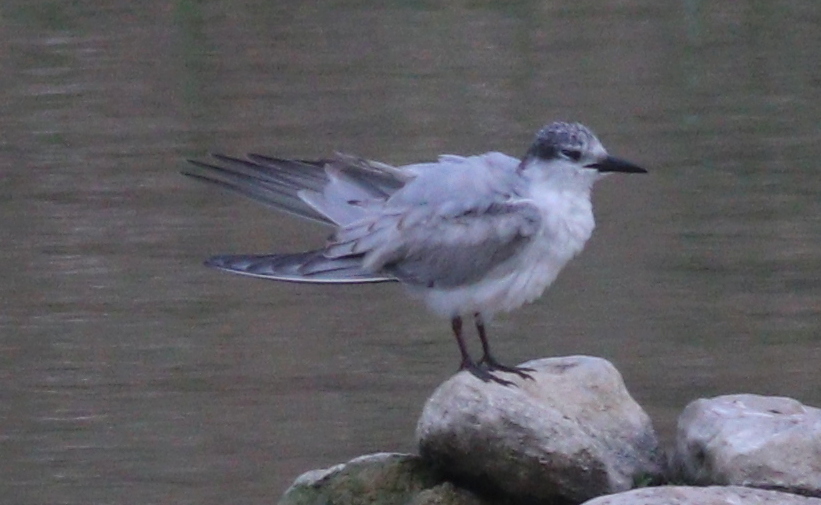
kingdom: Animalia
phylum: Chordata
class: Aves
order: Charadriiformes
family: Laridae
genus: Chlidonias
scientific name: Chlidonias hybrida
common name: Whiskered tern
